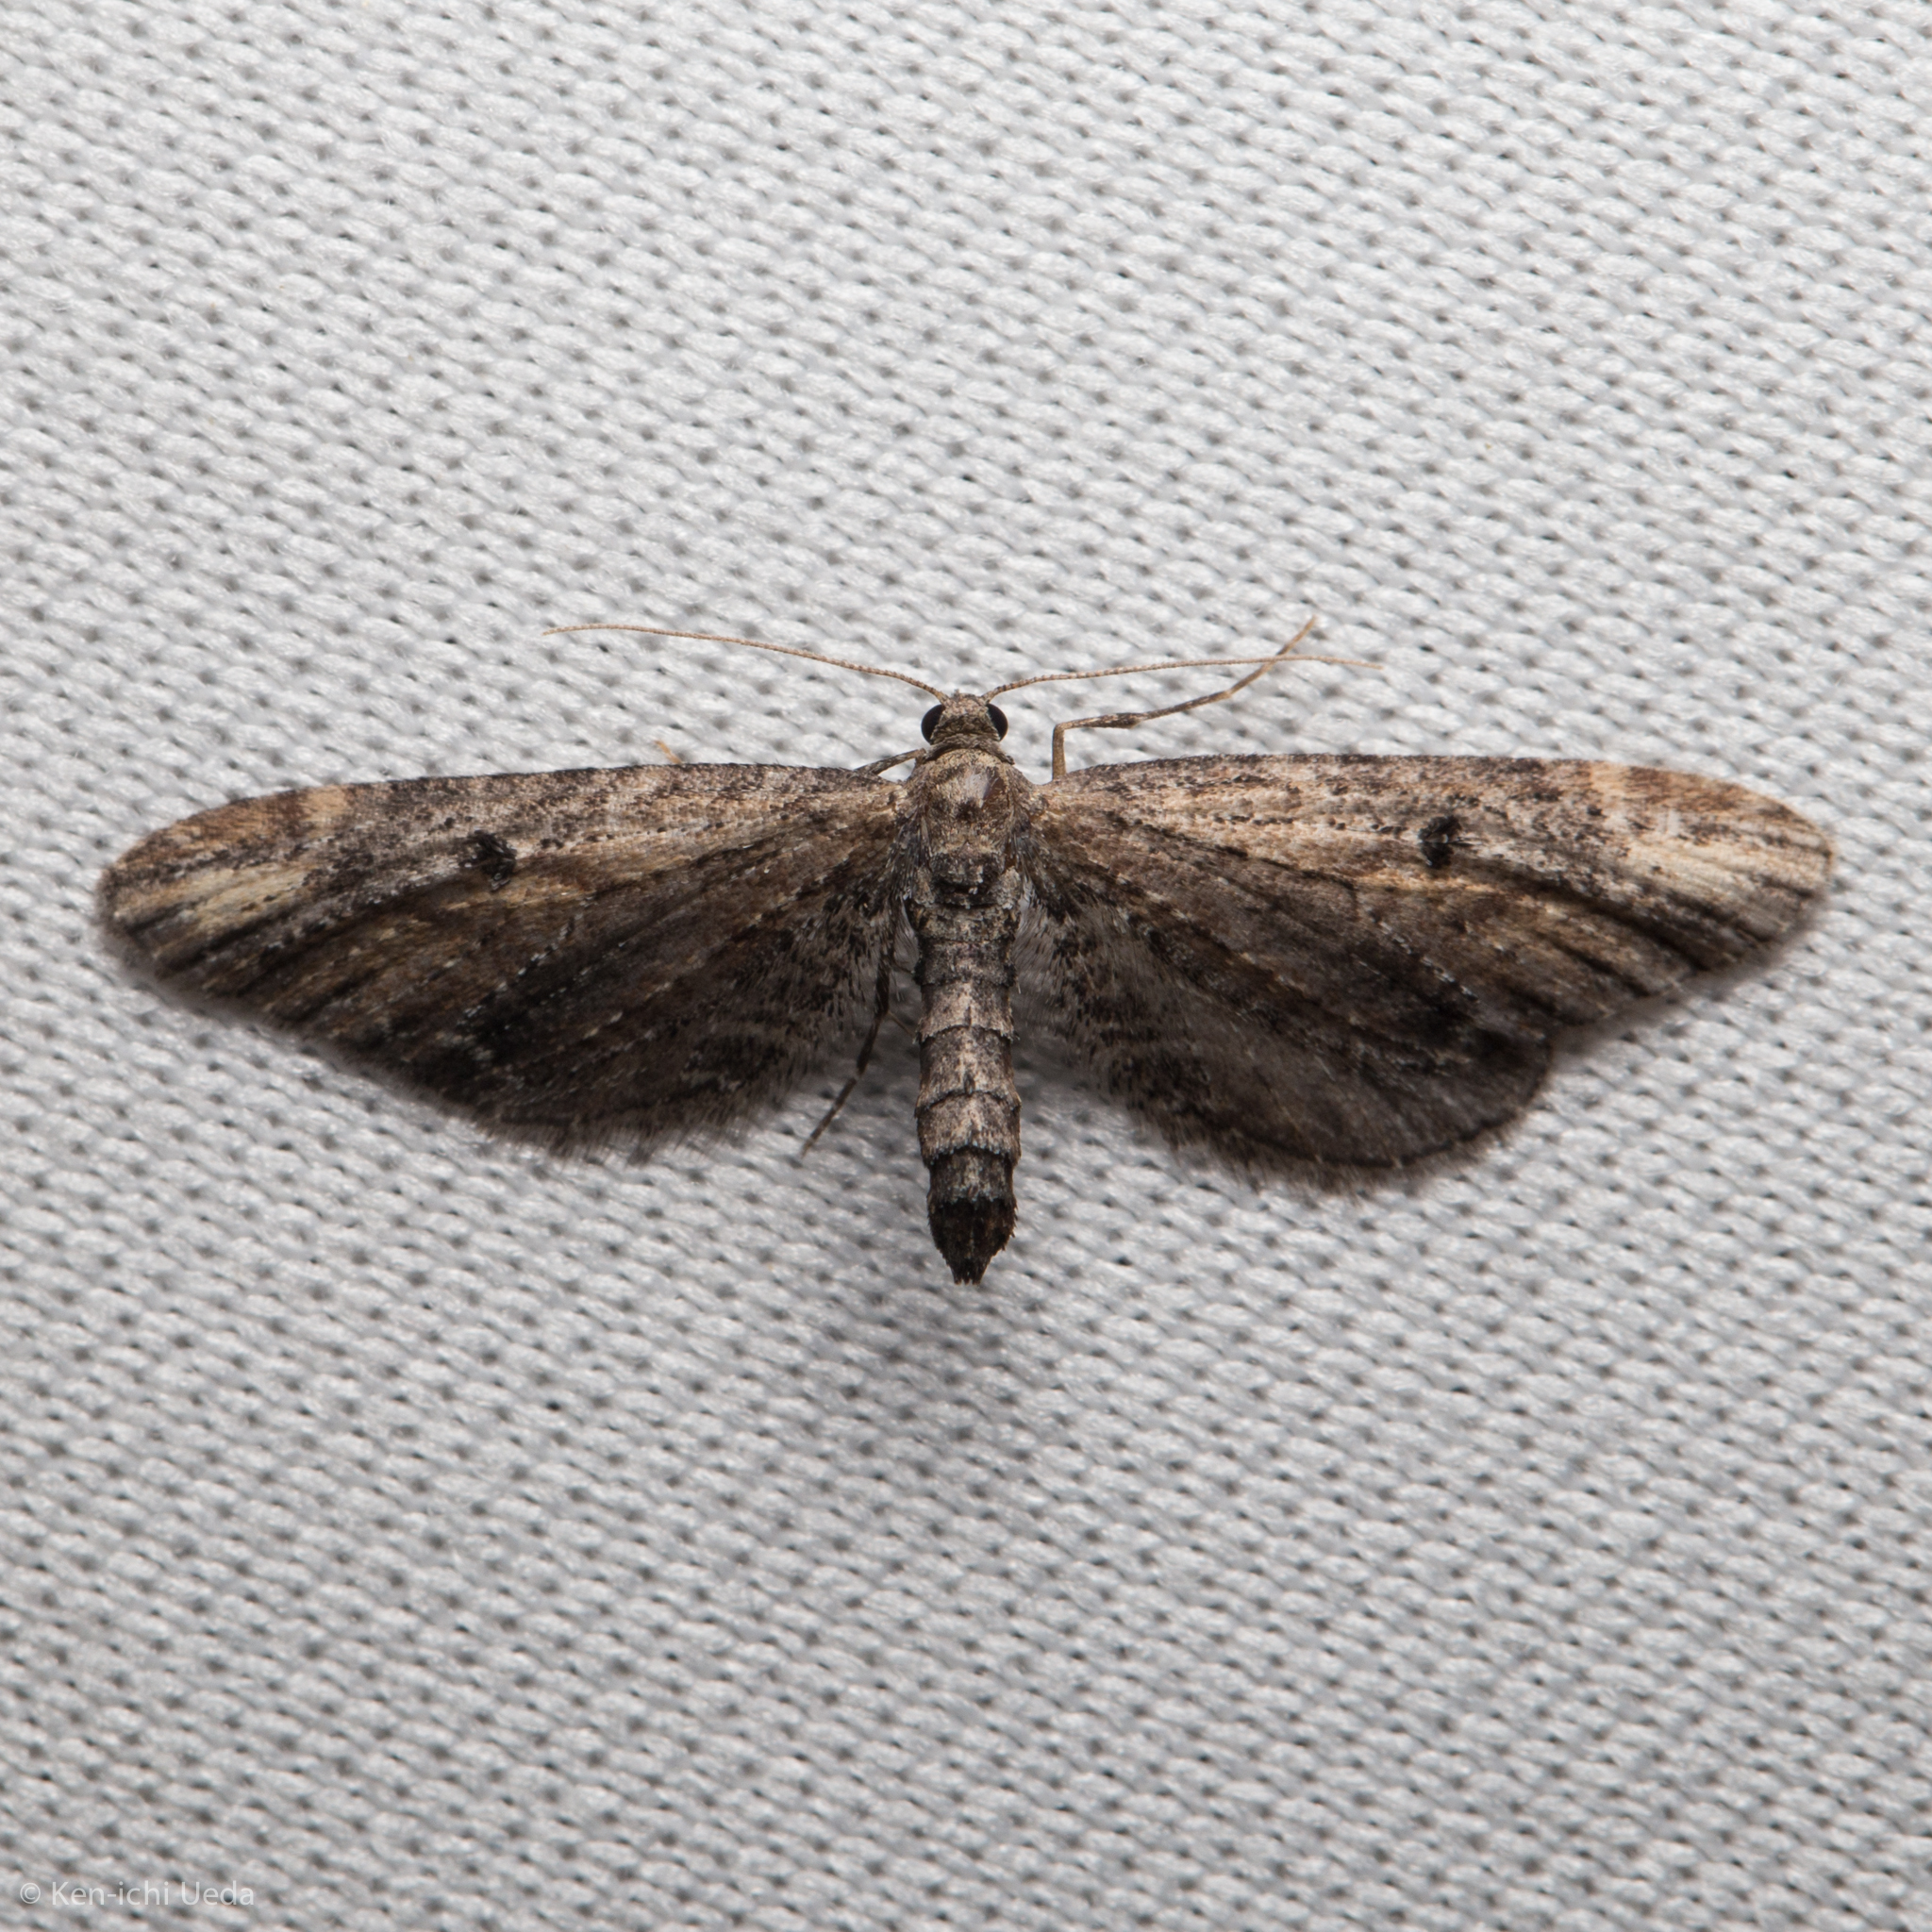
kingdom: Animalia
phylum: Arthropoda
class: Insecta
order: Lepidoptera
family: Geometridae
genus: Eupithecia
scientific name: Eupithecia subapicata
